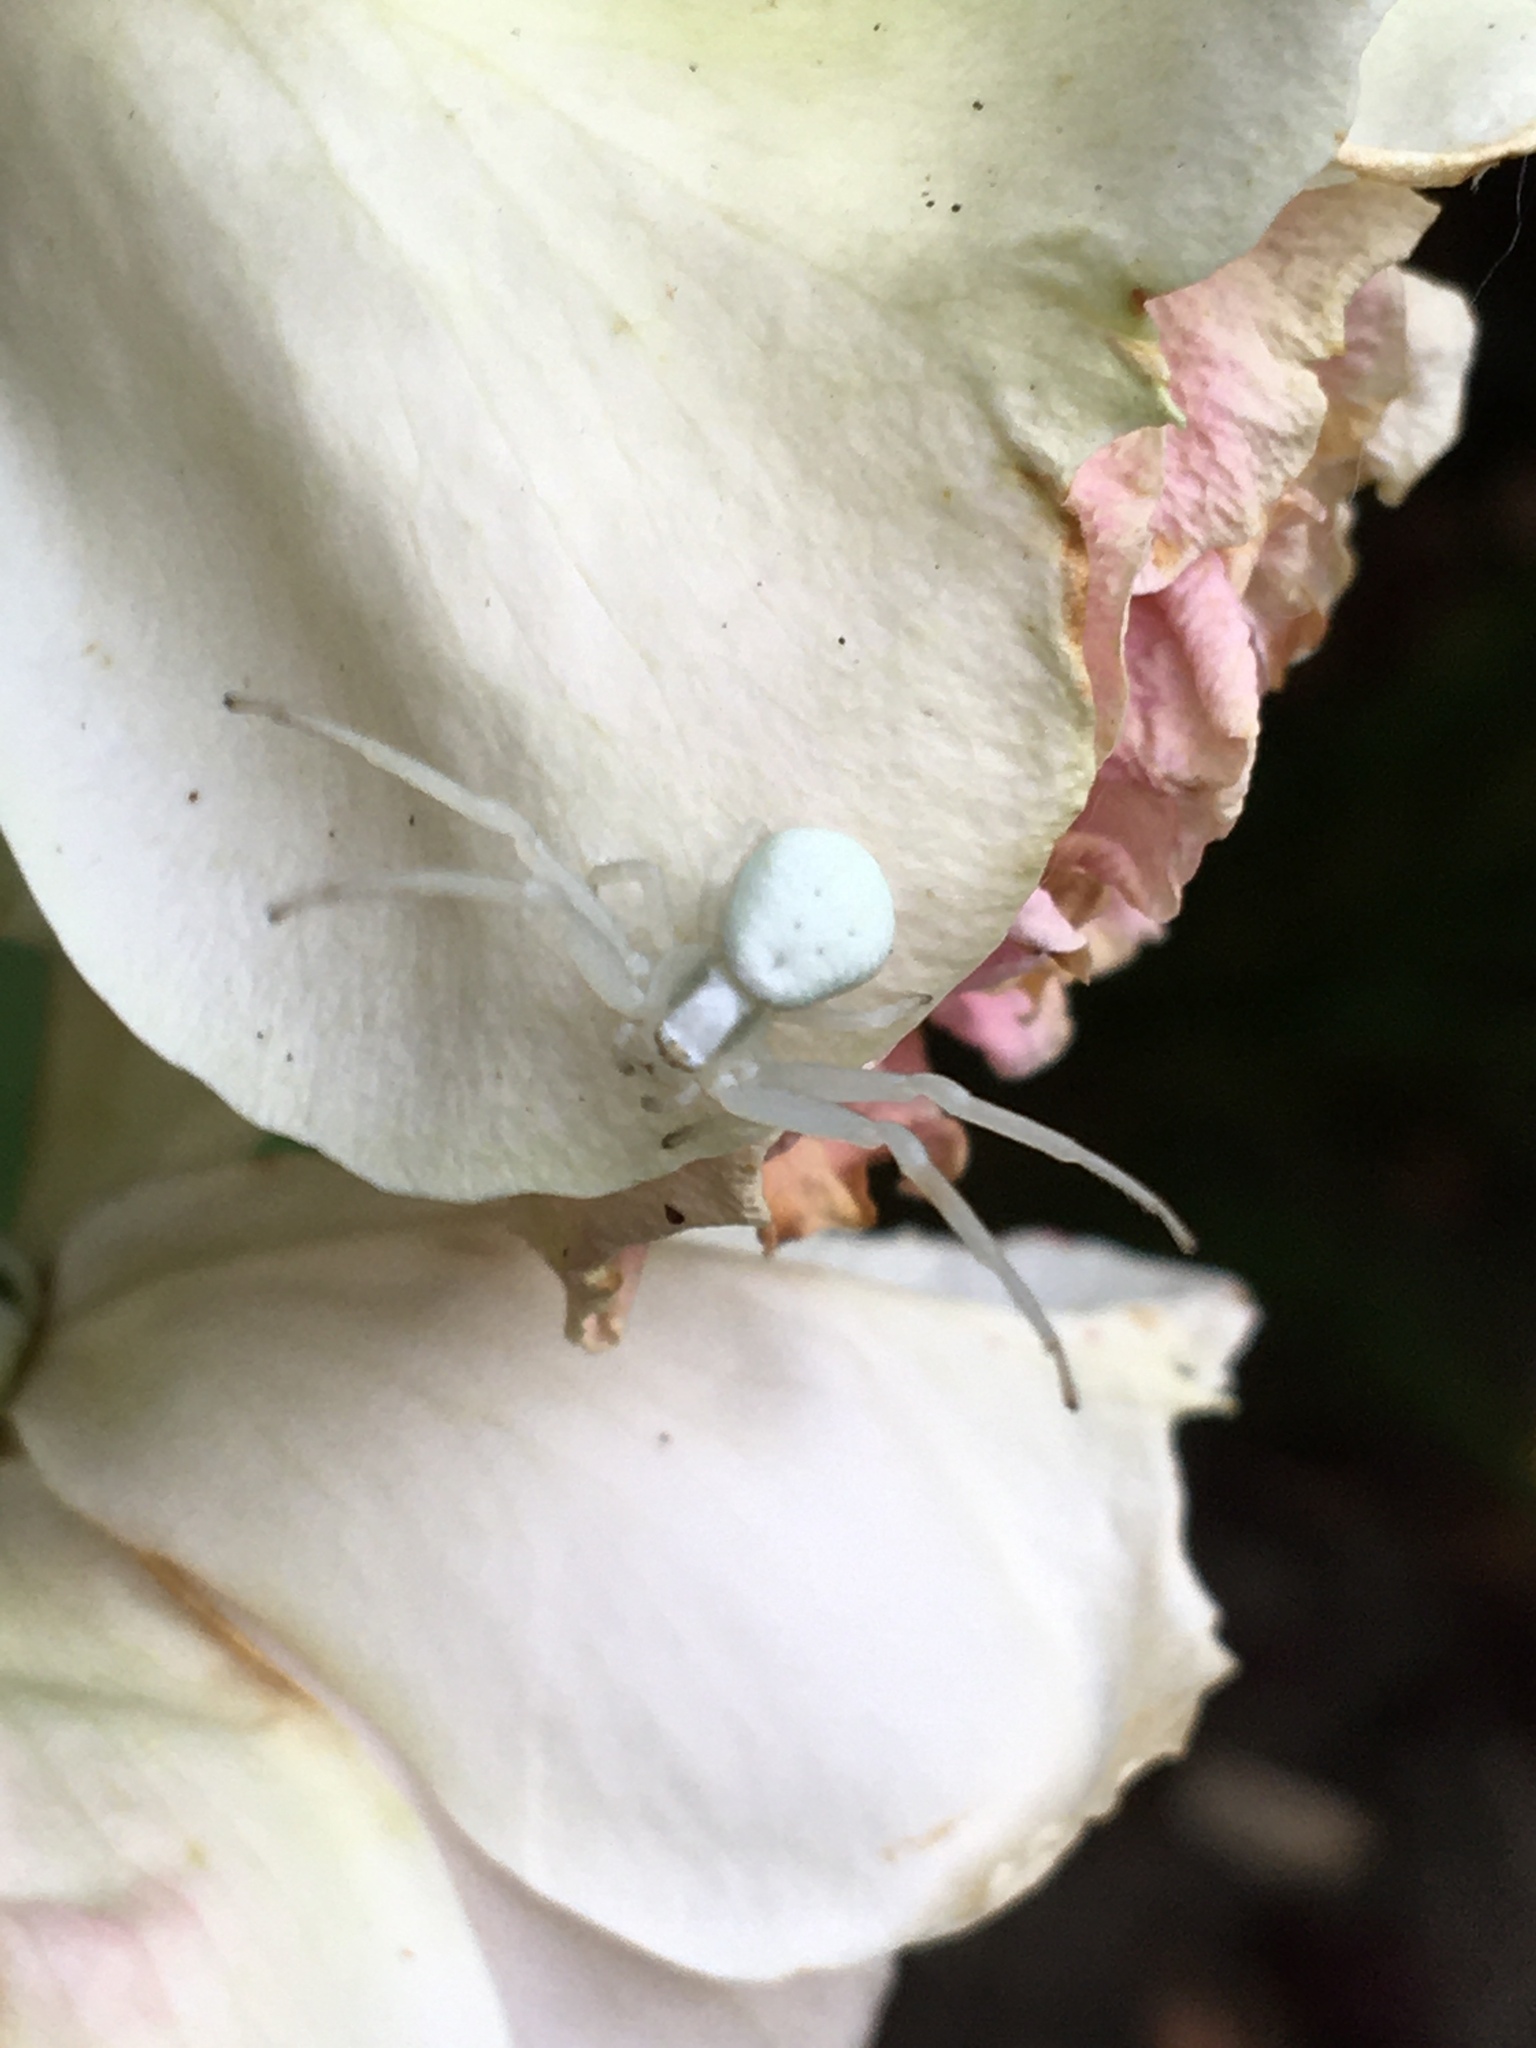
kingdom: Animalia
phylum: Arthropoda
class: Arachnida
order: Araneae
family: Thomisidae
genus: Misumena
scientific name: Misumena vatia
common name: Goldenrod crab spider
